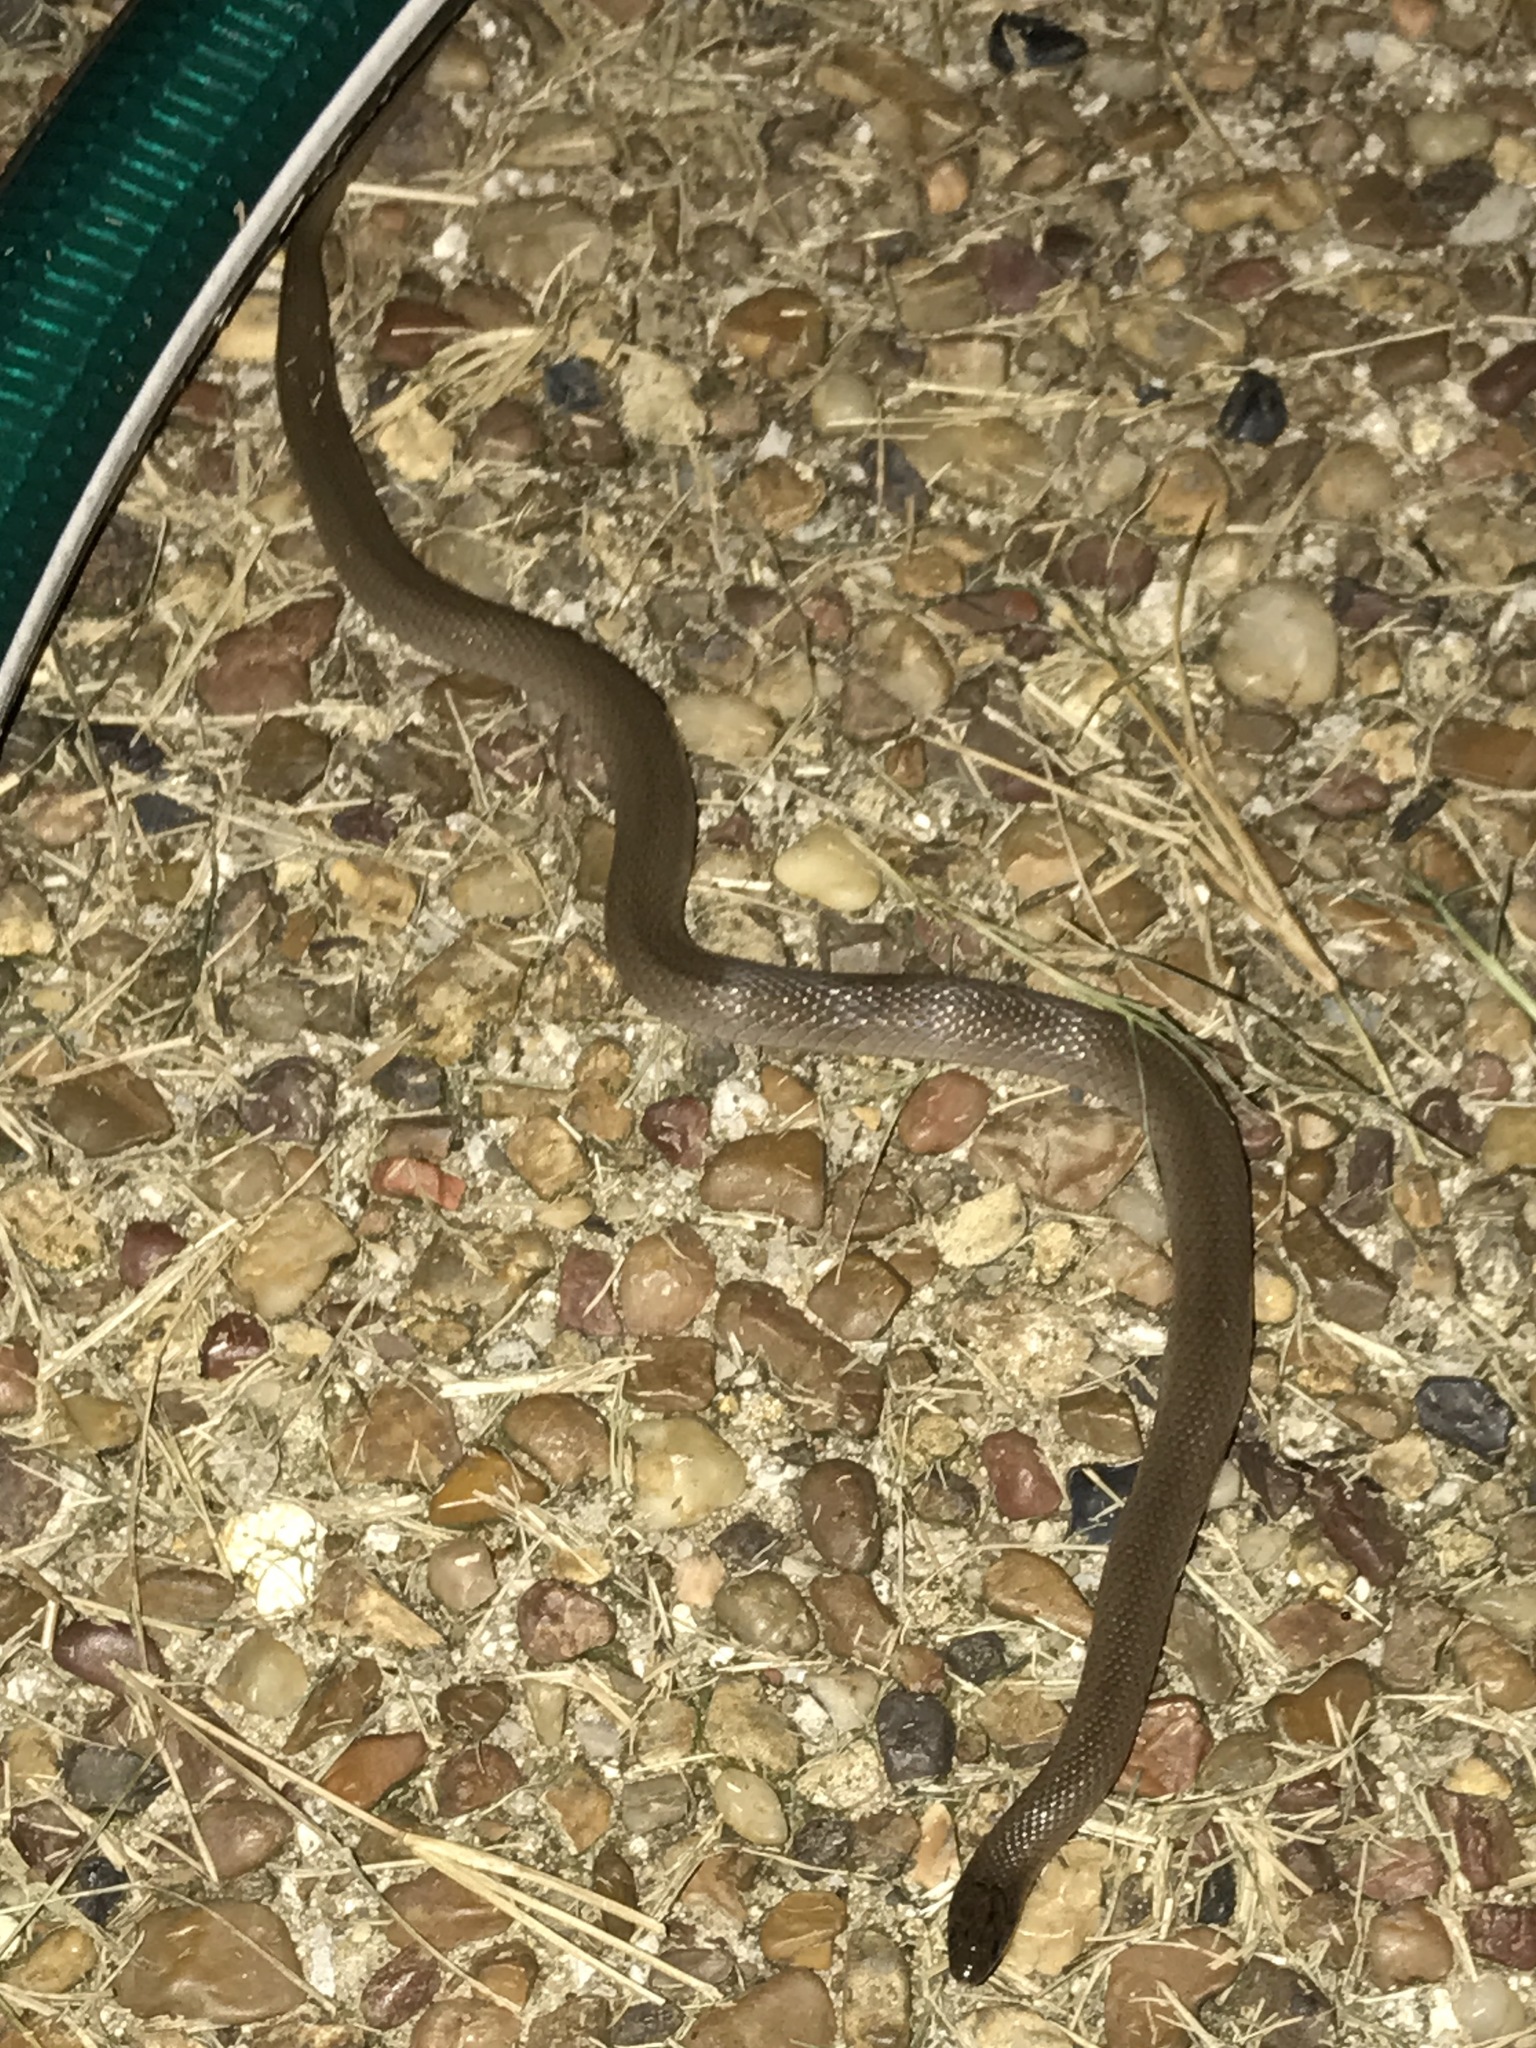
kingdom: Animalia
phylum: Chordata
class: Squamata
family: Colubridae
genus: Haldea
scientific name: Haldea striatula
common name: Rough earth snake
